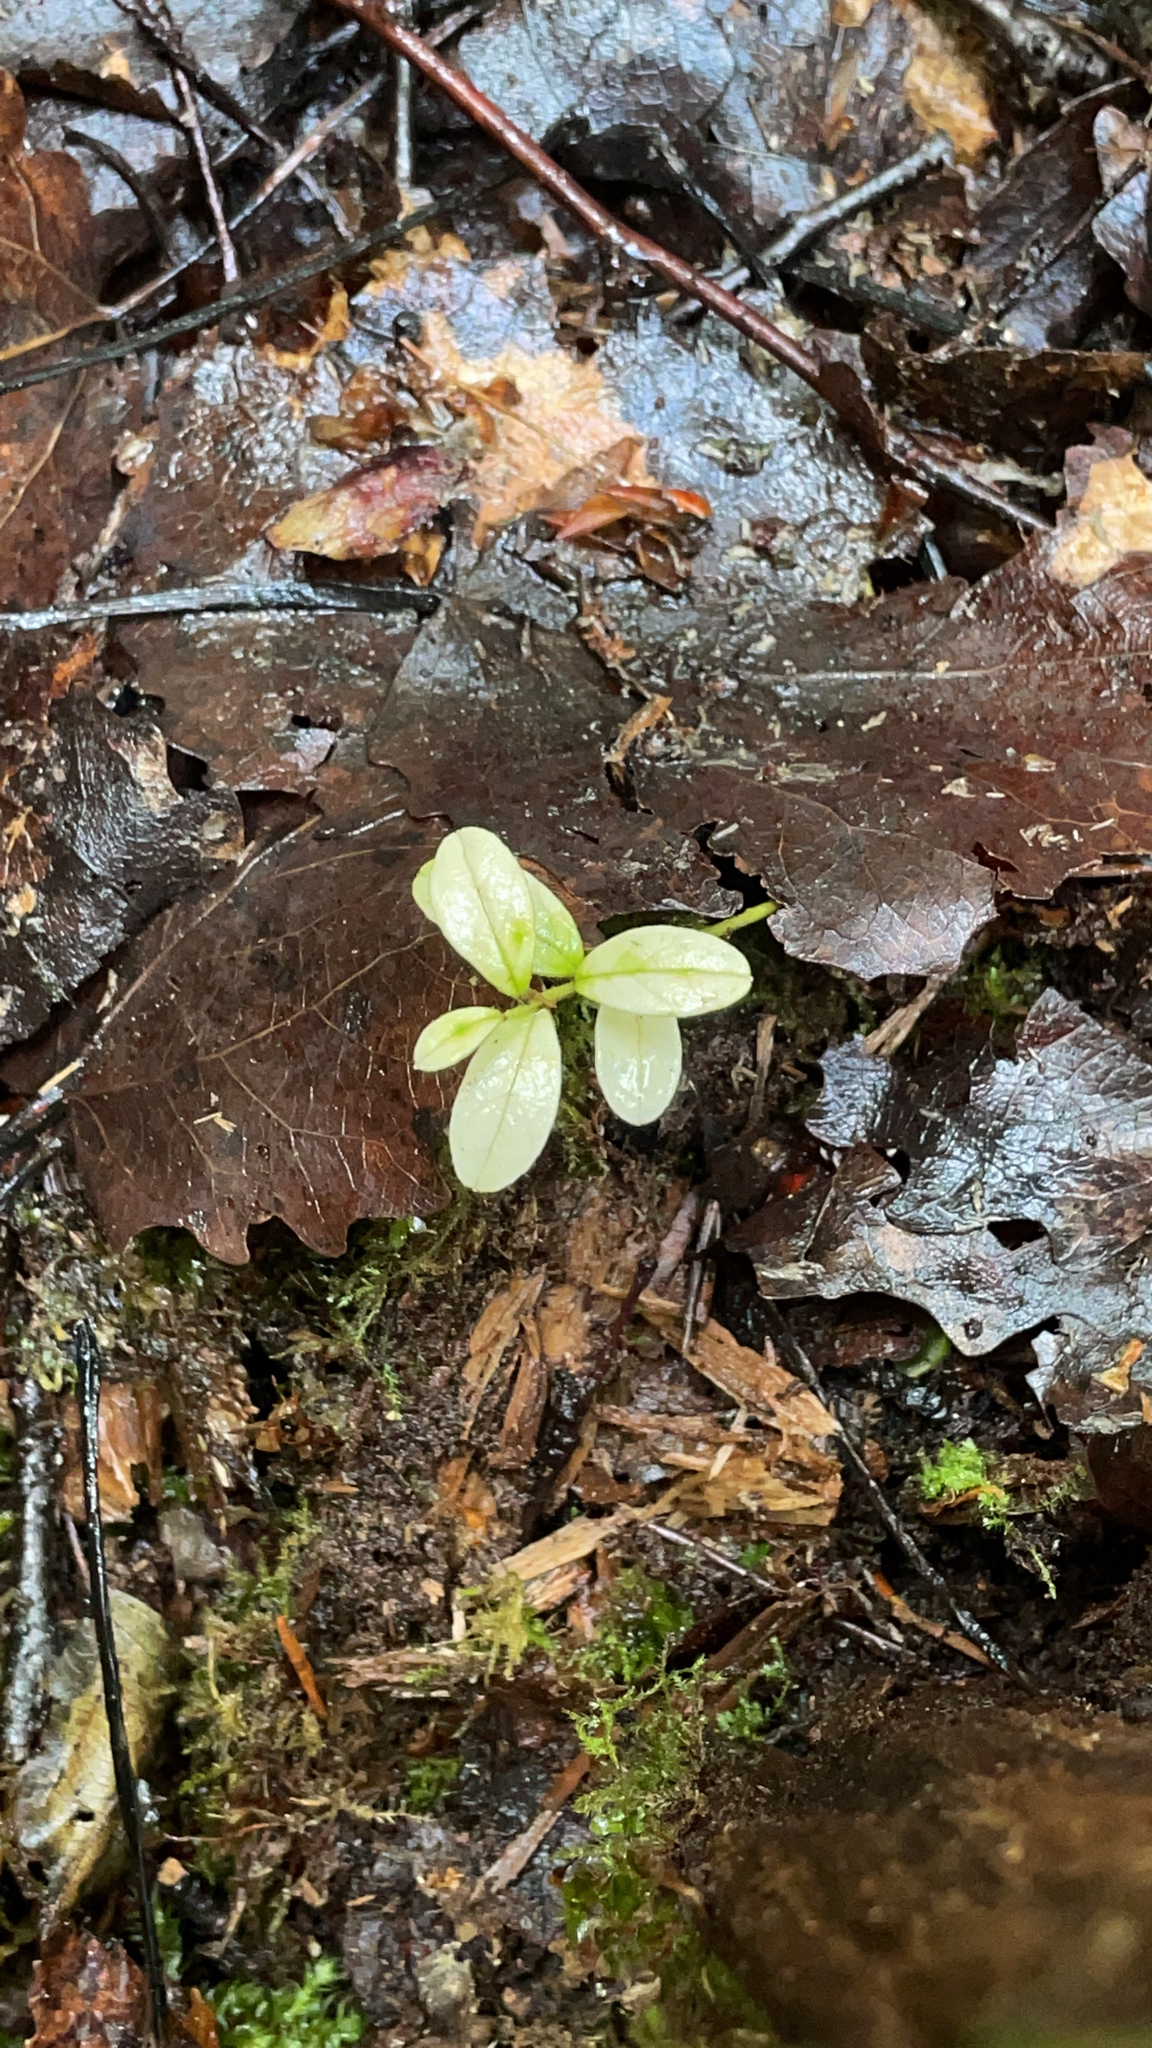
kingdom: Plantae
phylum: Tracheophyta
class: Magnoliopsida
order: Ericales
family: Ericaceae
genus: Vaccinium
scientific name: Vaccinium vitis-idaea
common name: Cowberry
